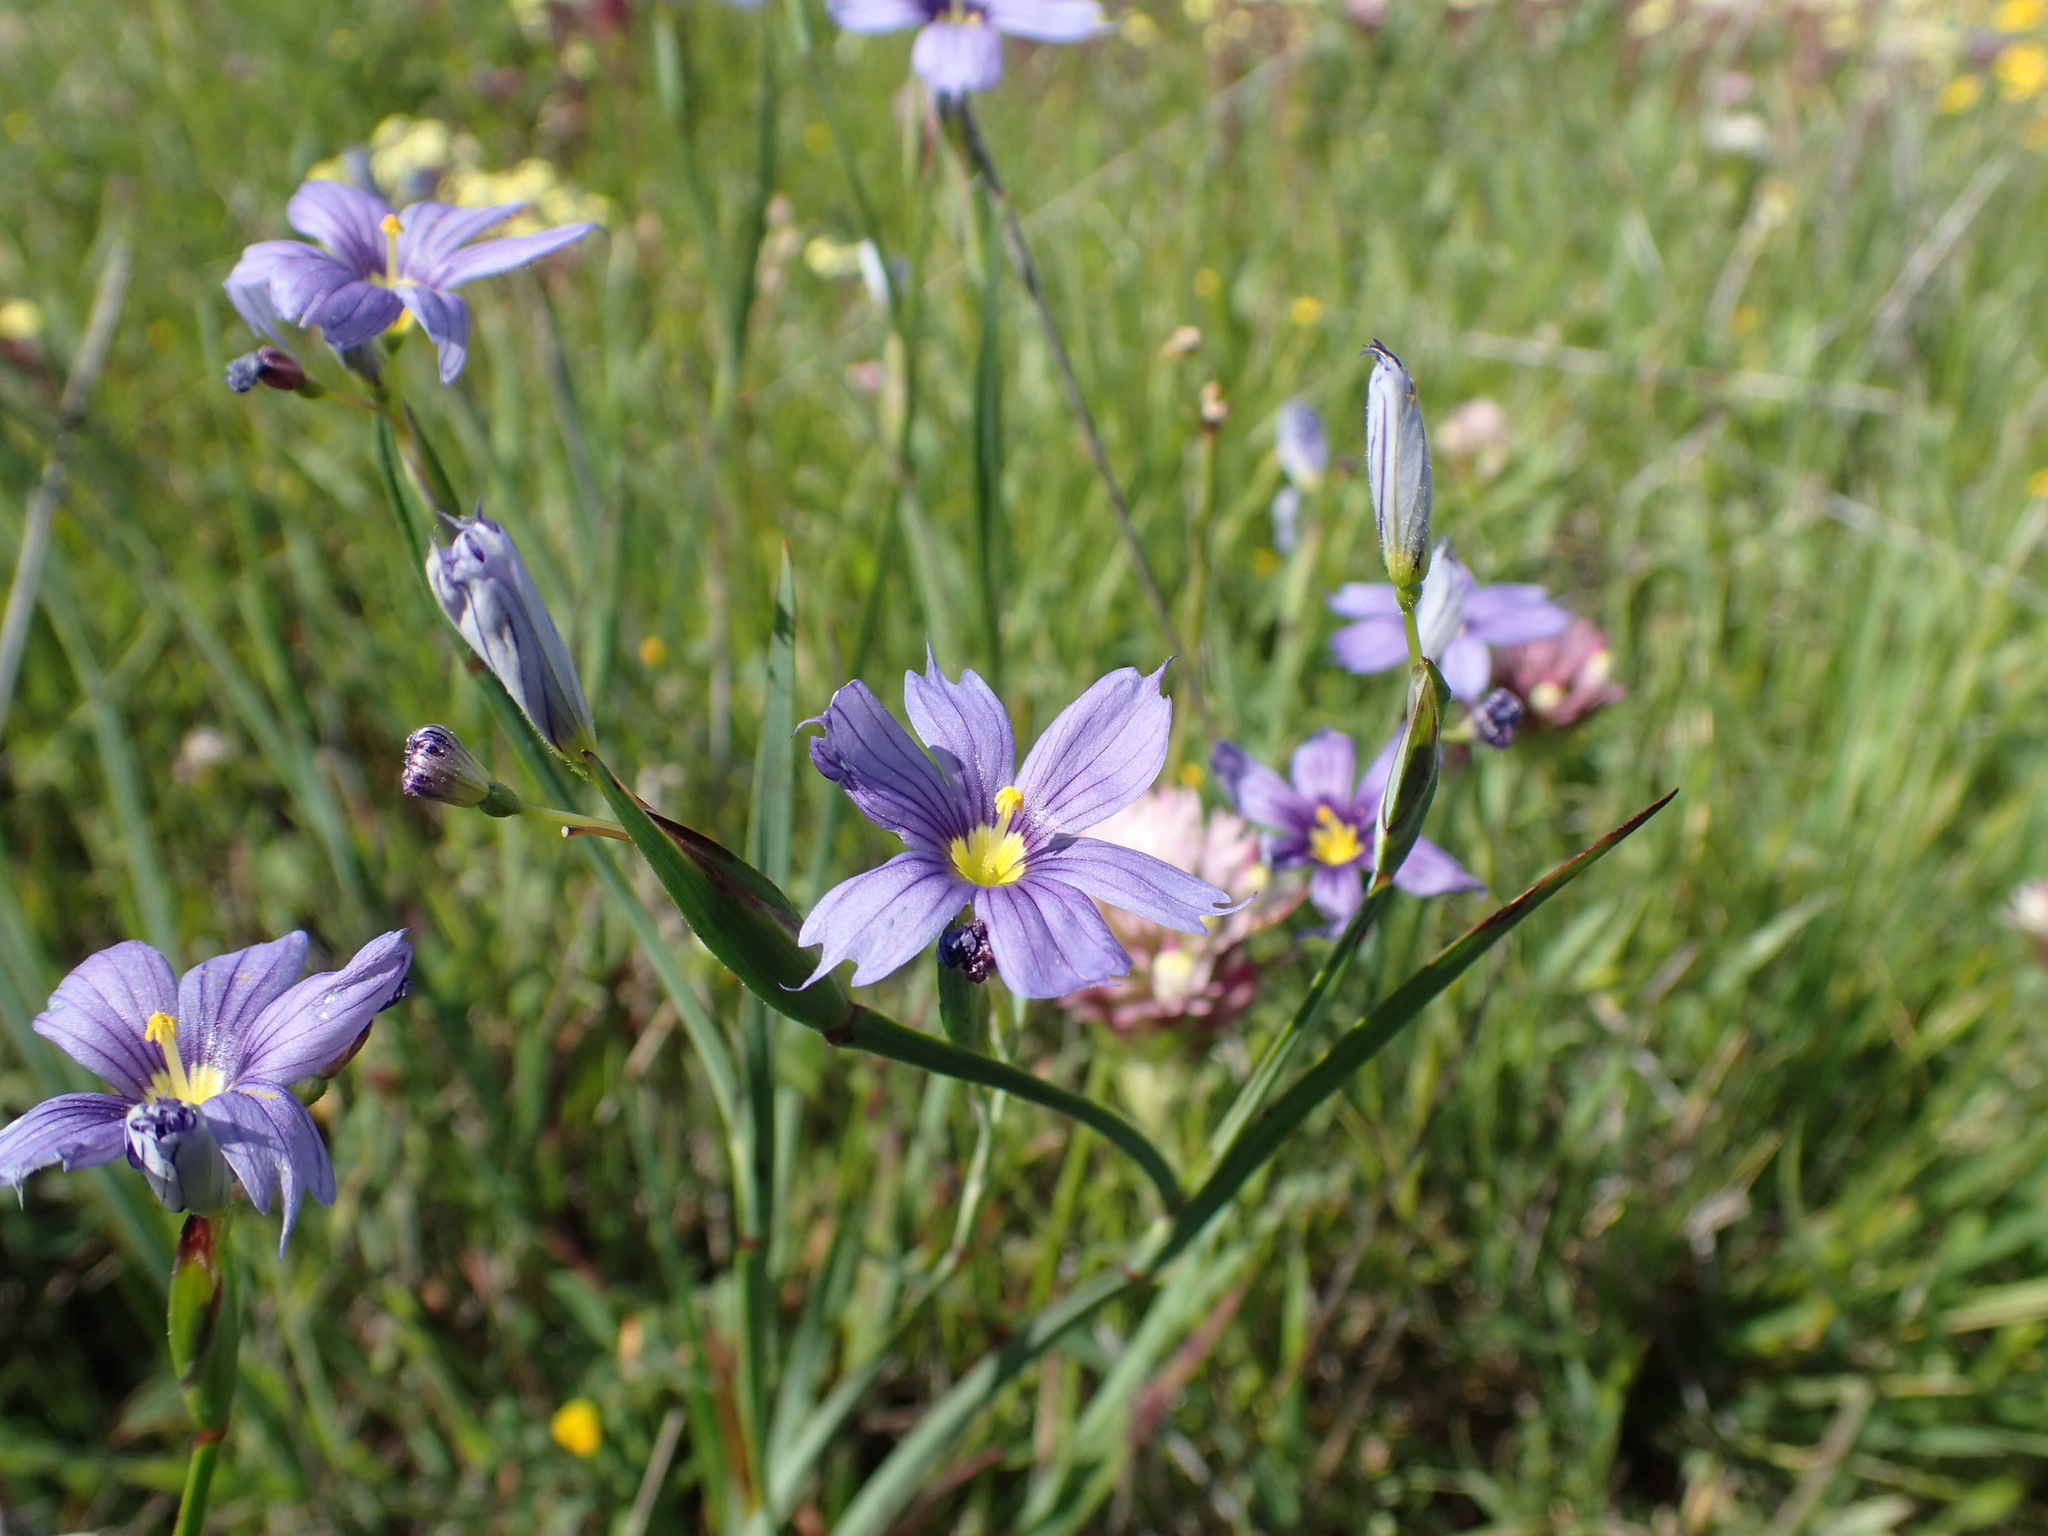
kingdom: Plantae
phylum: Tracheophyta
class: Liliopsida
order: Asparagales
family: Iridaceae
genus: Sisyrinchium
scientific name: Sisyrinchium bellum
